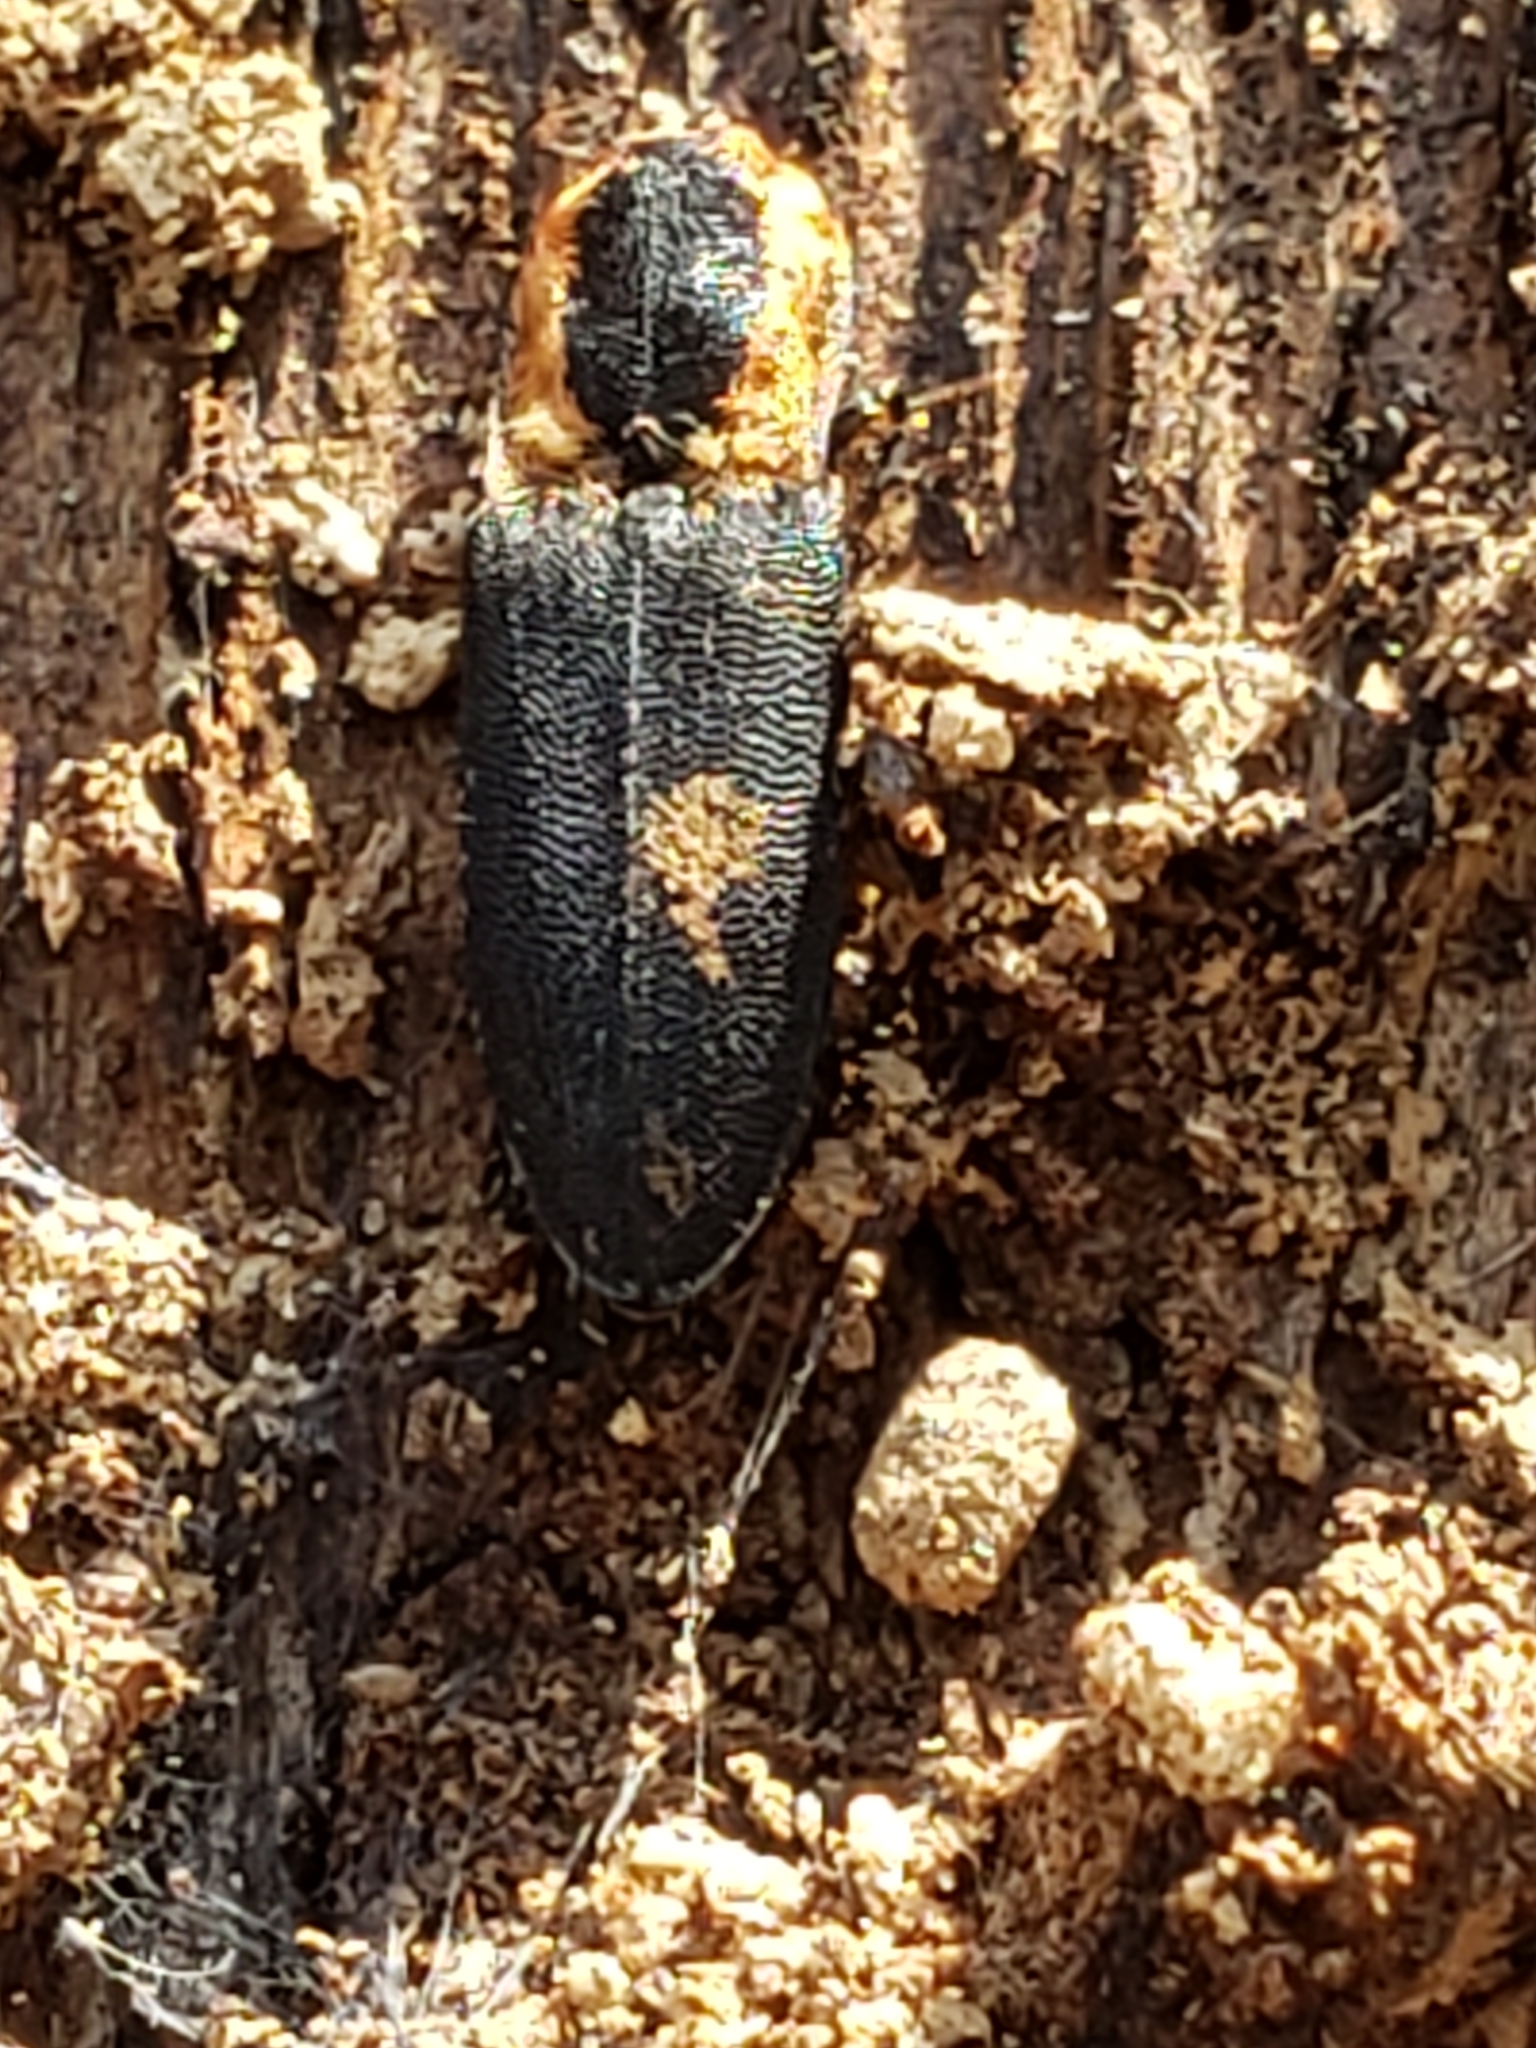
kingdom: Animalia
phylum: Arthropoda
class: Insecta
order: Coleoptera
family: Elateridae
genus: Lacon
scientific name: Lacon discoideus
